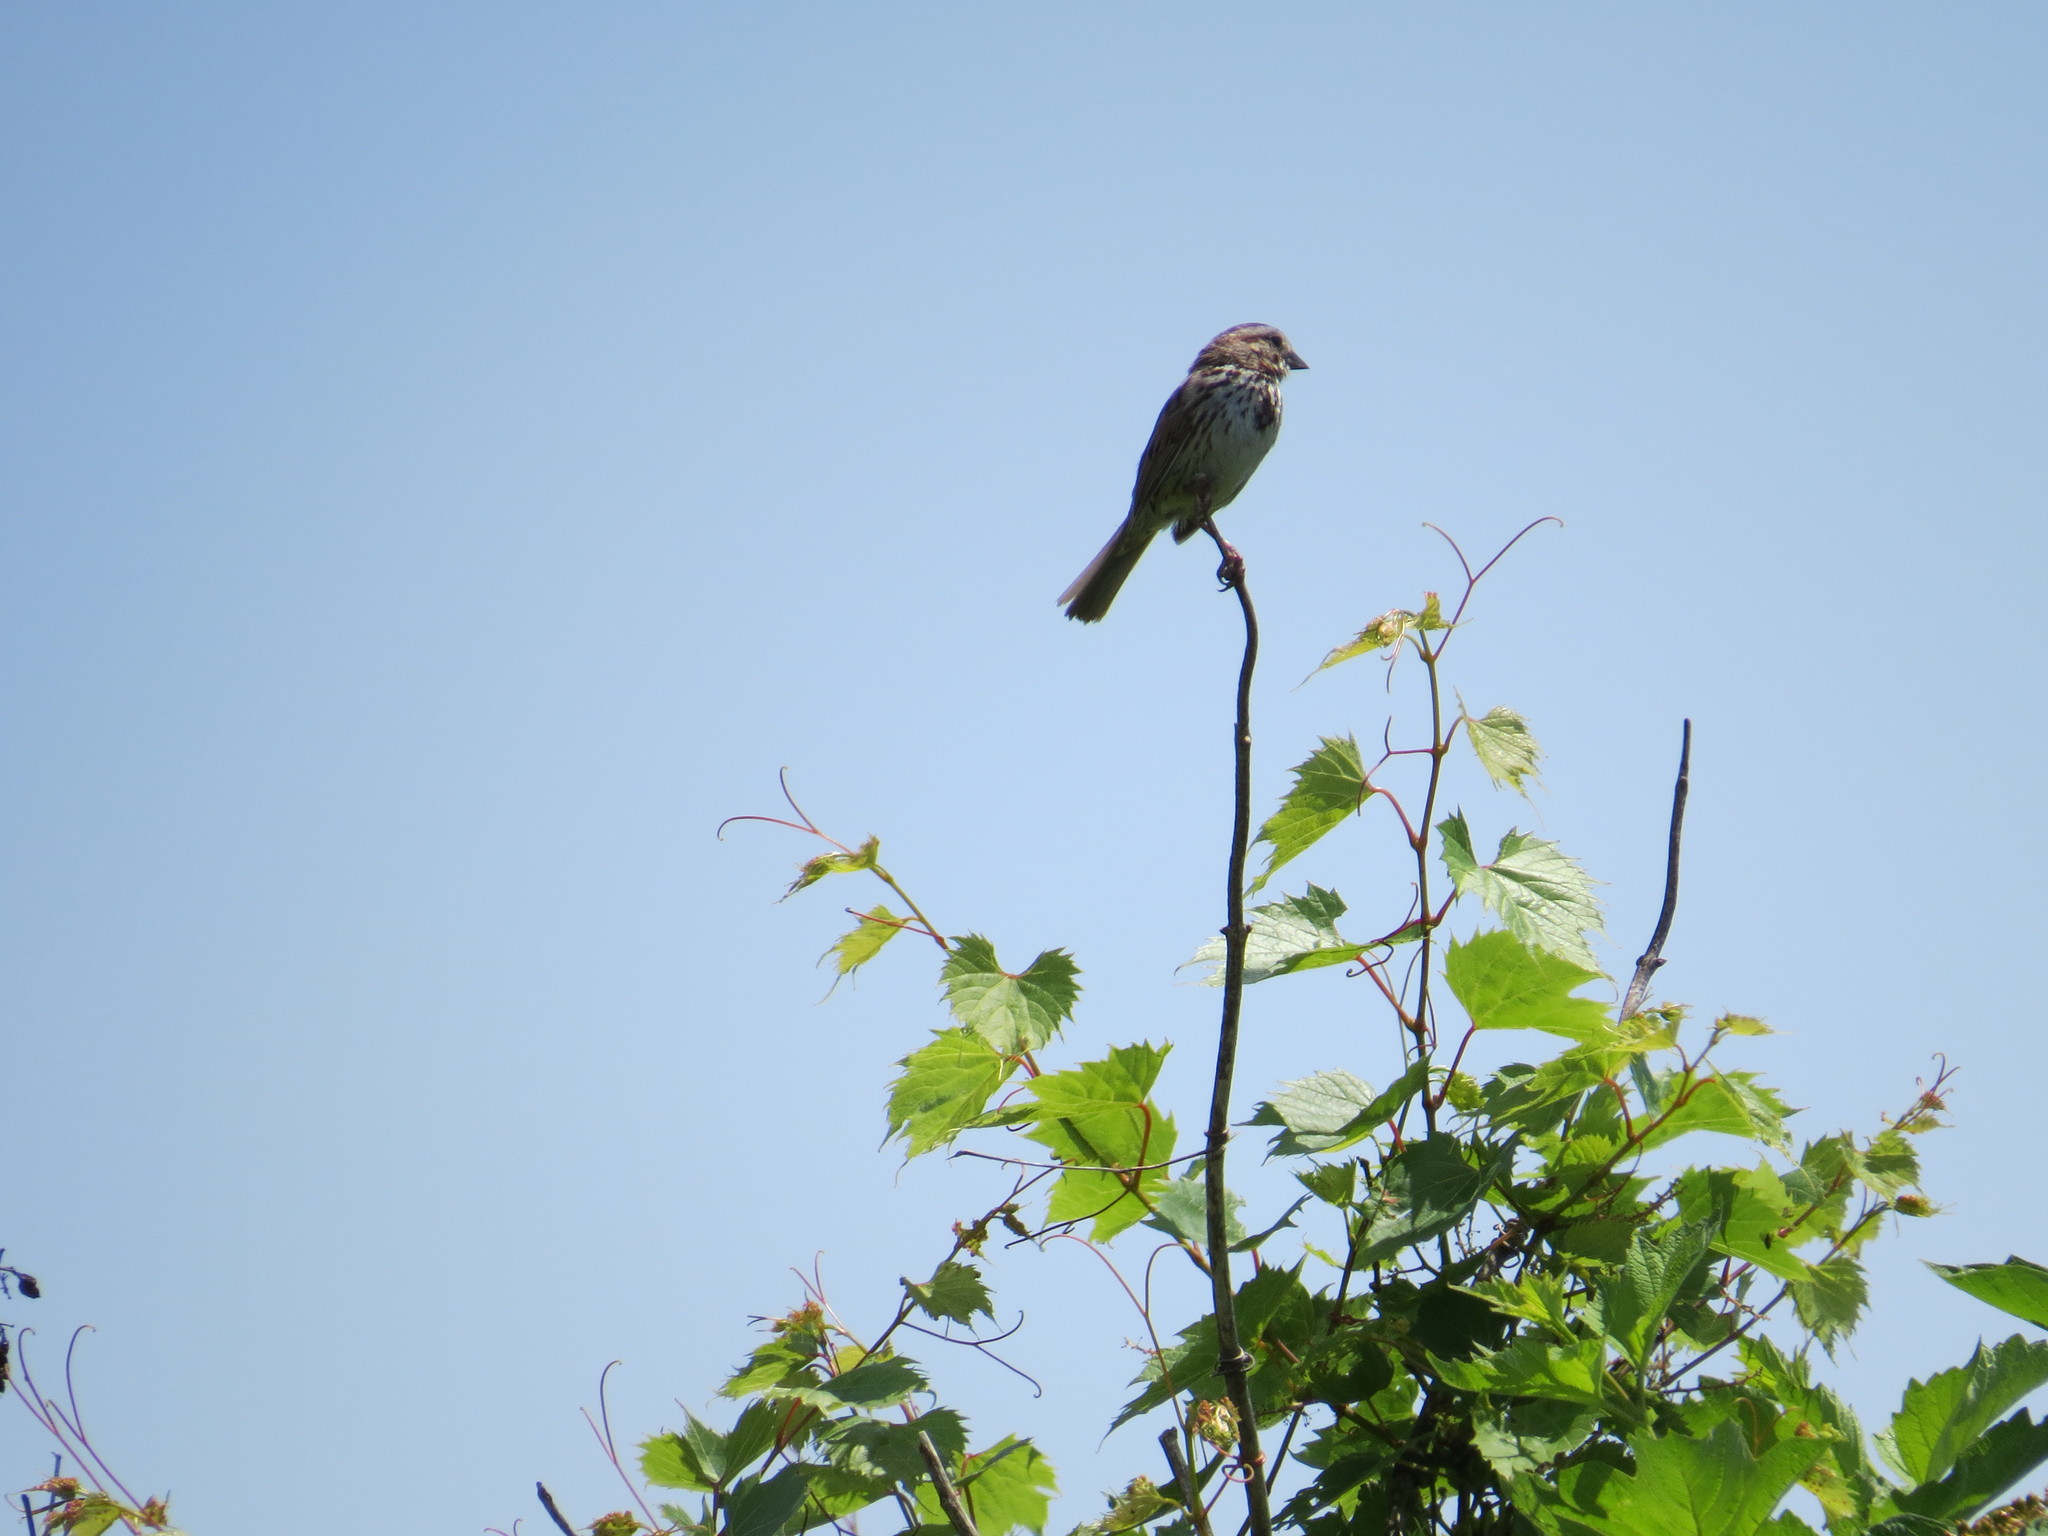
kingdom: Animalia
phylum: Chordata
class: Aves
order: Passeriformes
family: Passerellidae
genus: Melospiza
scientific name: Melospiza melodia
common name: Song sparrow
